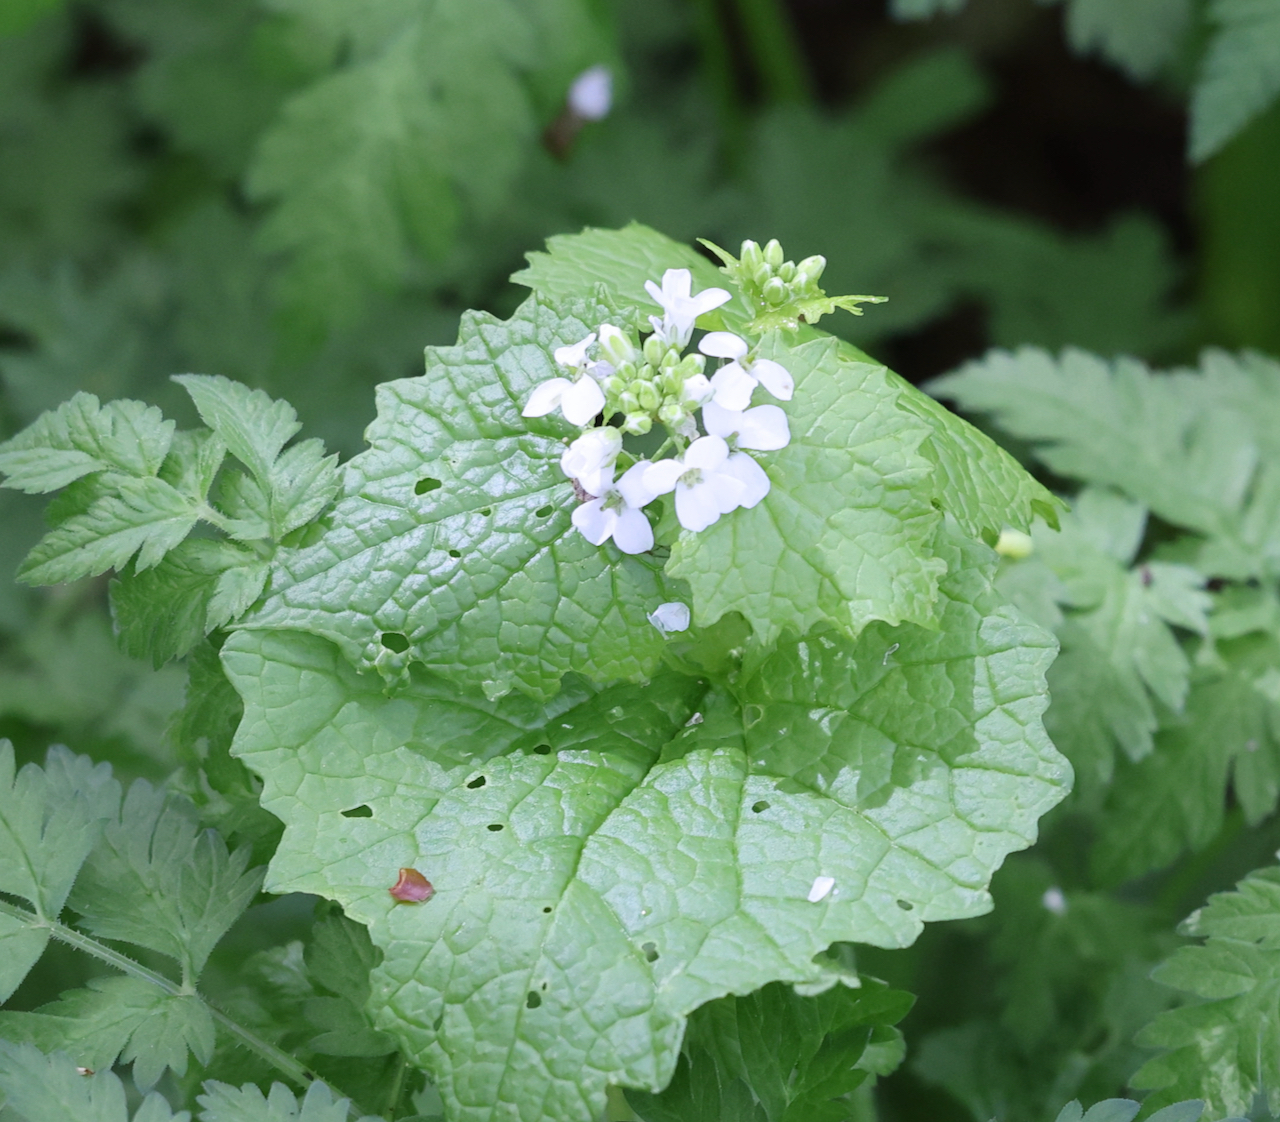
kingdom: Plantae
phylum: Tracheophyta
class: Magnoliopsida
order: Brassicales
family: Brassicaceae
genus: Alliaria
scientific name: Alliaria petiolata
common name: Garlic mustard
